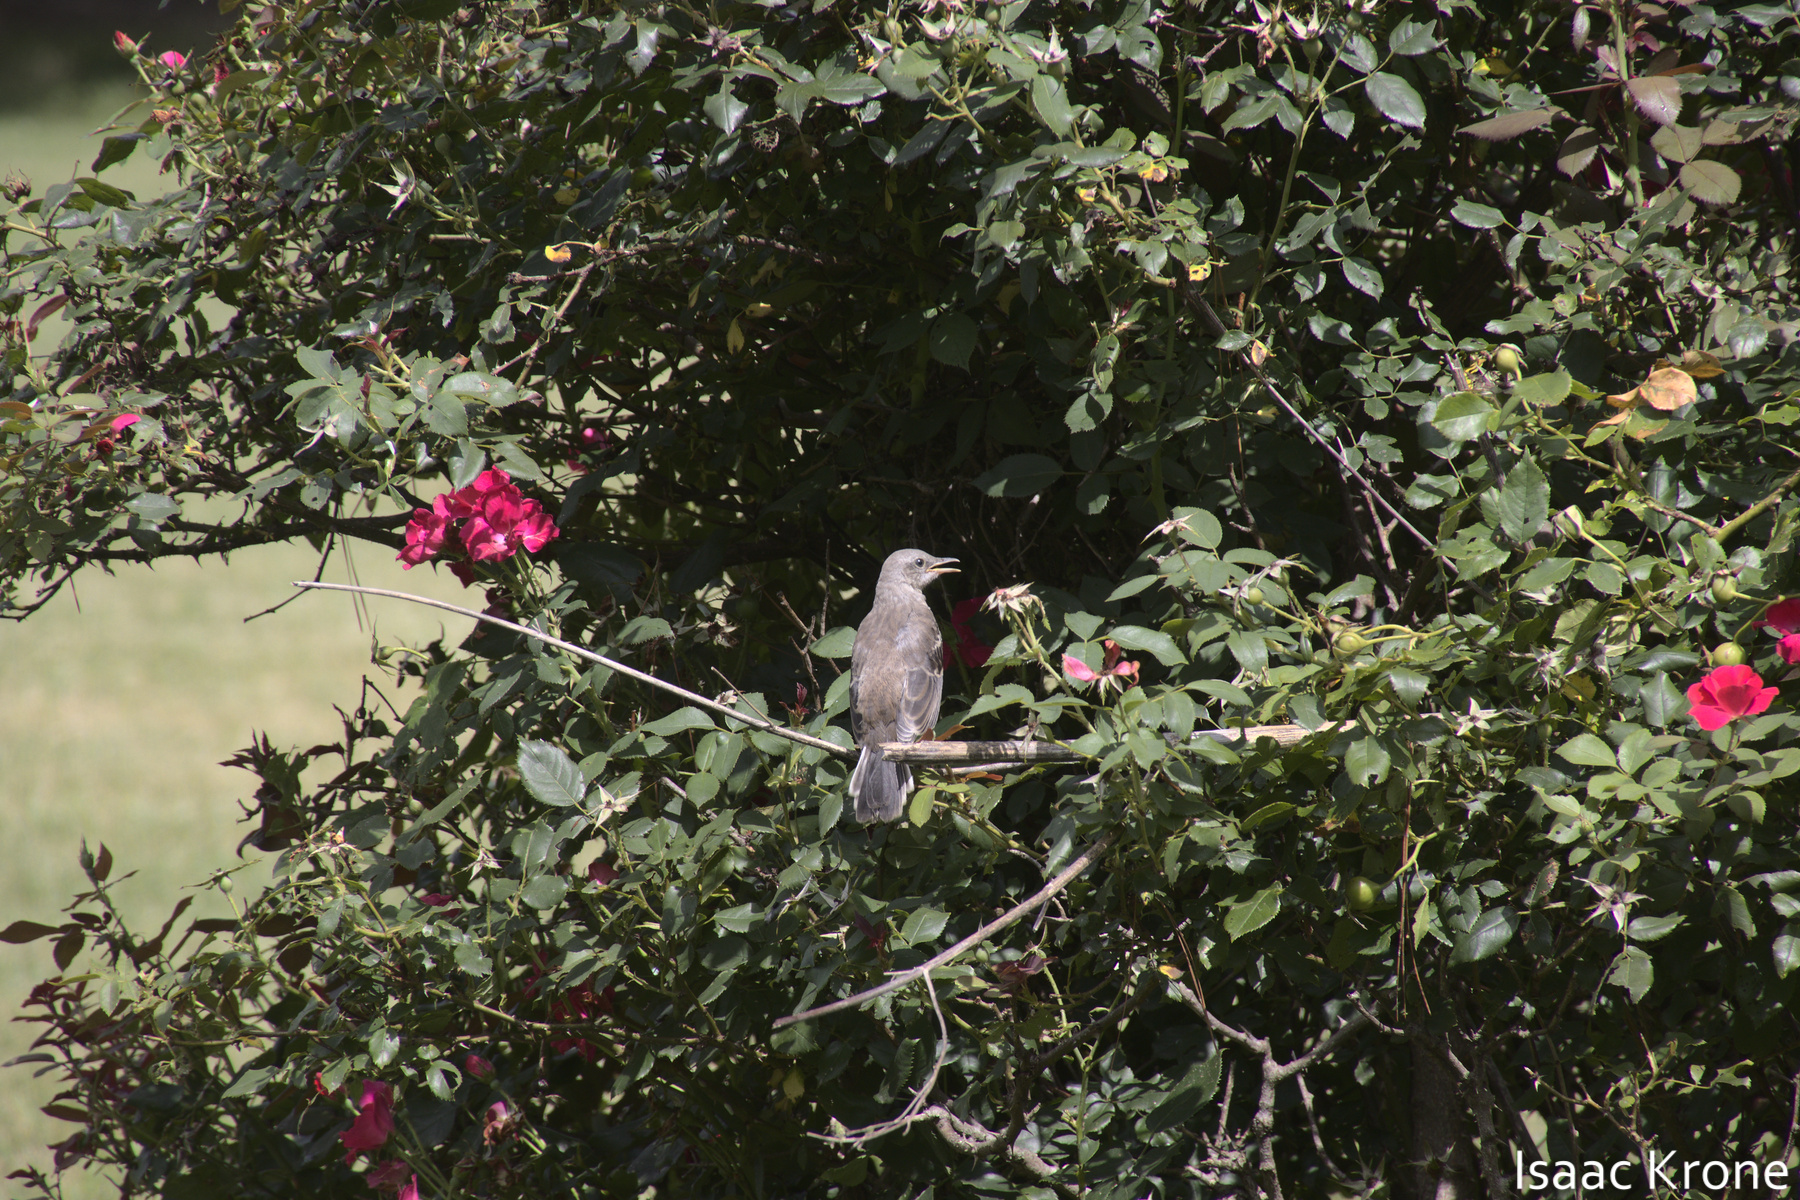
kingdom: Animalia
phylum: Chordata
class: Aves
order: Passeriformes
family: Mimidae
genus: Mimus
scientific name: Mimus polyglottos
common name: Northern mockingbird
